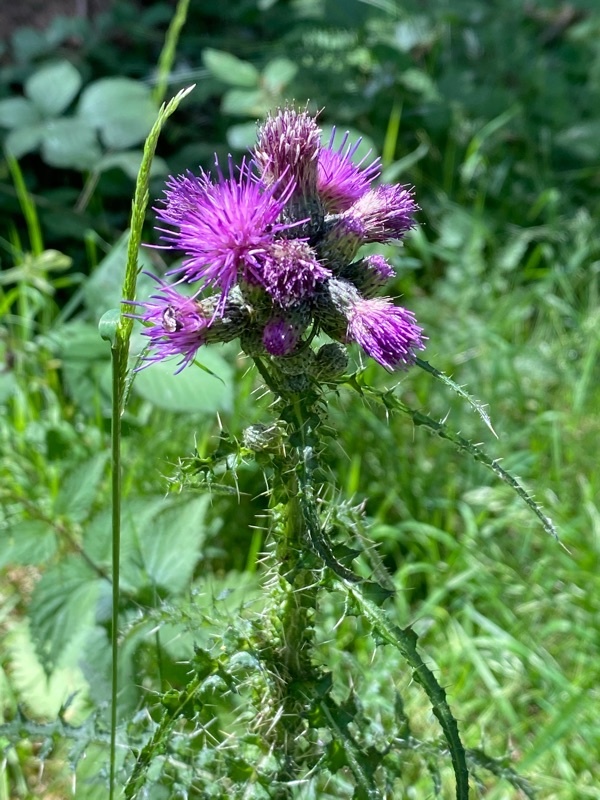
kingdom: Plantae
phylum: Tracheophyta
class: Magnoliopsida
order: Asterales
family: Asteraceae
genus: Cirsium
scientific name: Cirsium palustre
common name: Marsh thistle
